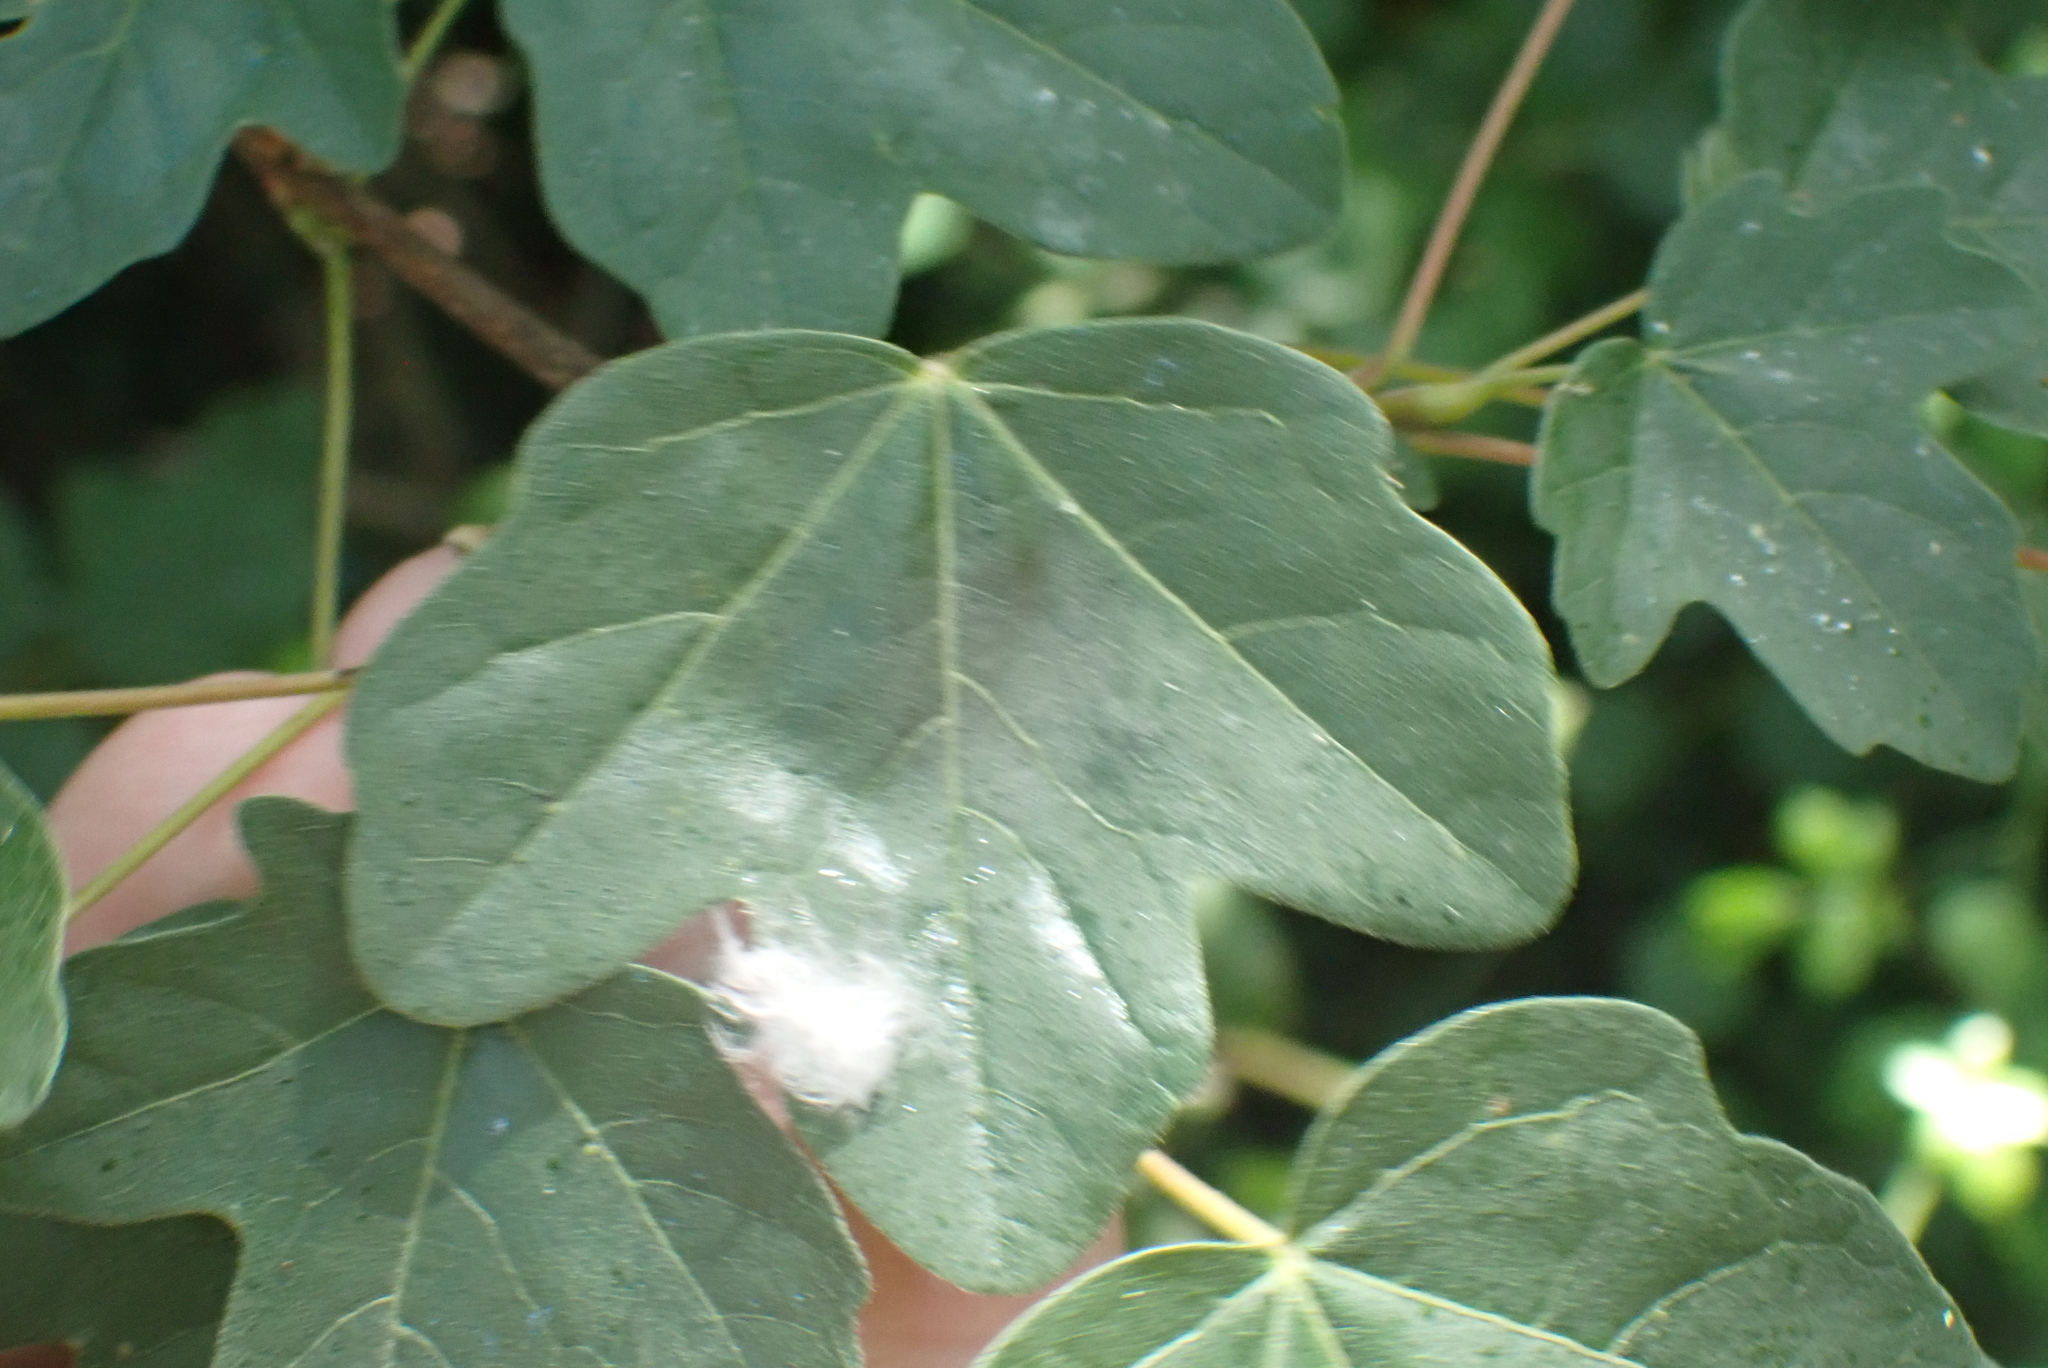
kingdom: Plantae
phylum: Tracheophyta
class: Magnoliopsida
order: Sapindales
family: Sapindaceae
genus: Acer
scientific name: Acer campestre
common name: Field maple
